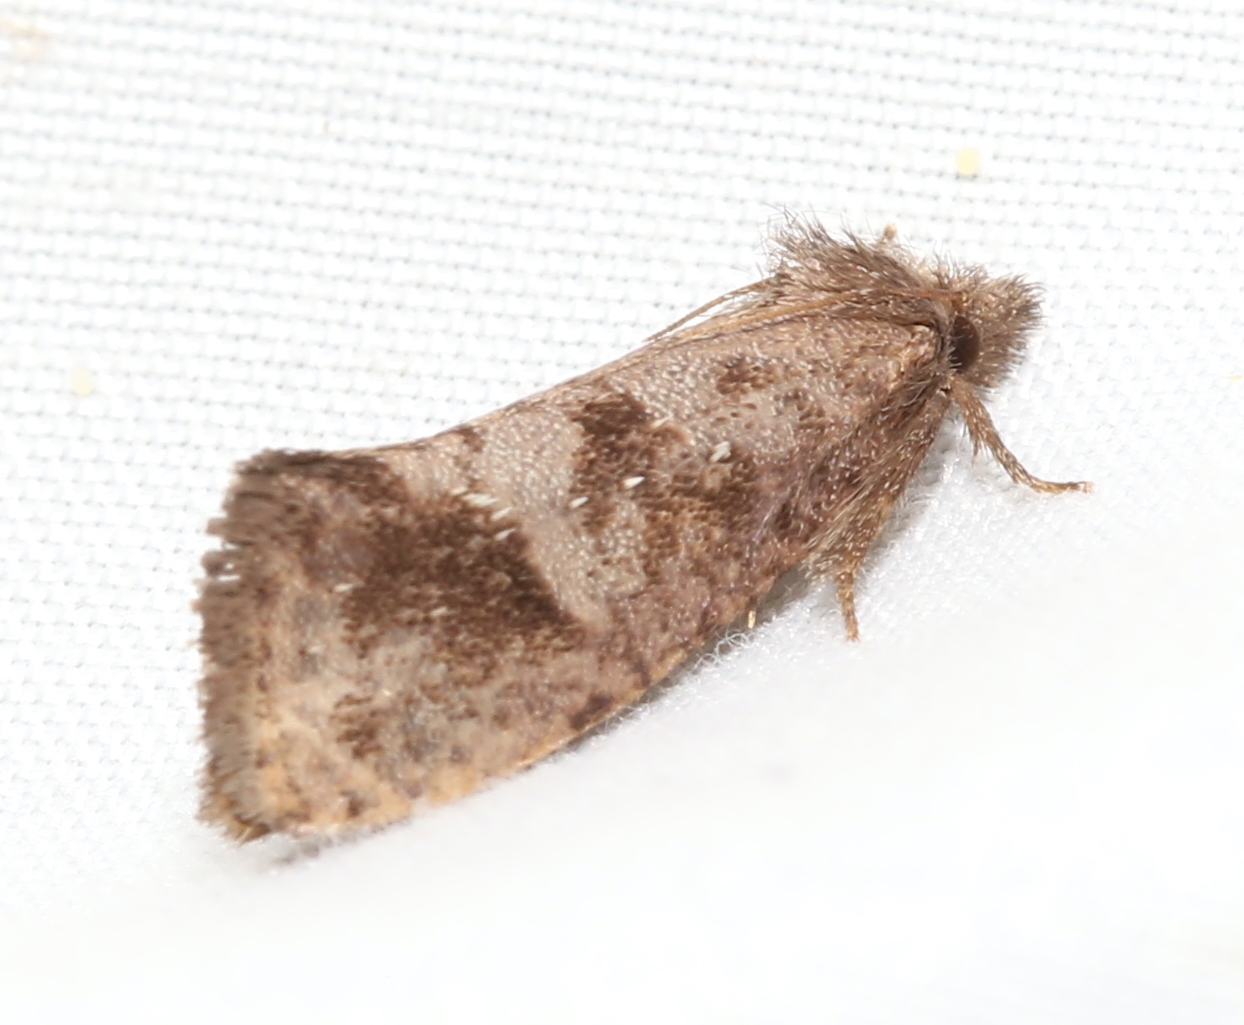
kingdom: Animalia
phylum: Arthropoda
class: Insecta
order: Lepidoptera
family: Tineidae
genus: Acrolophus
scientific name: Acrolophus texanella
